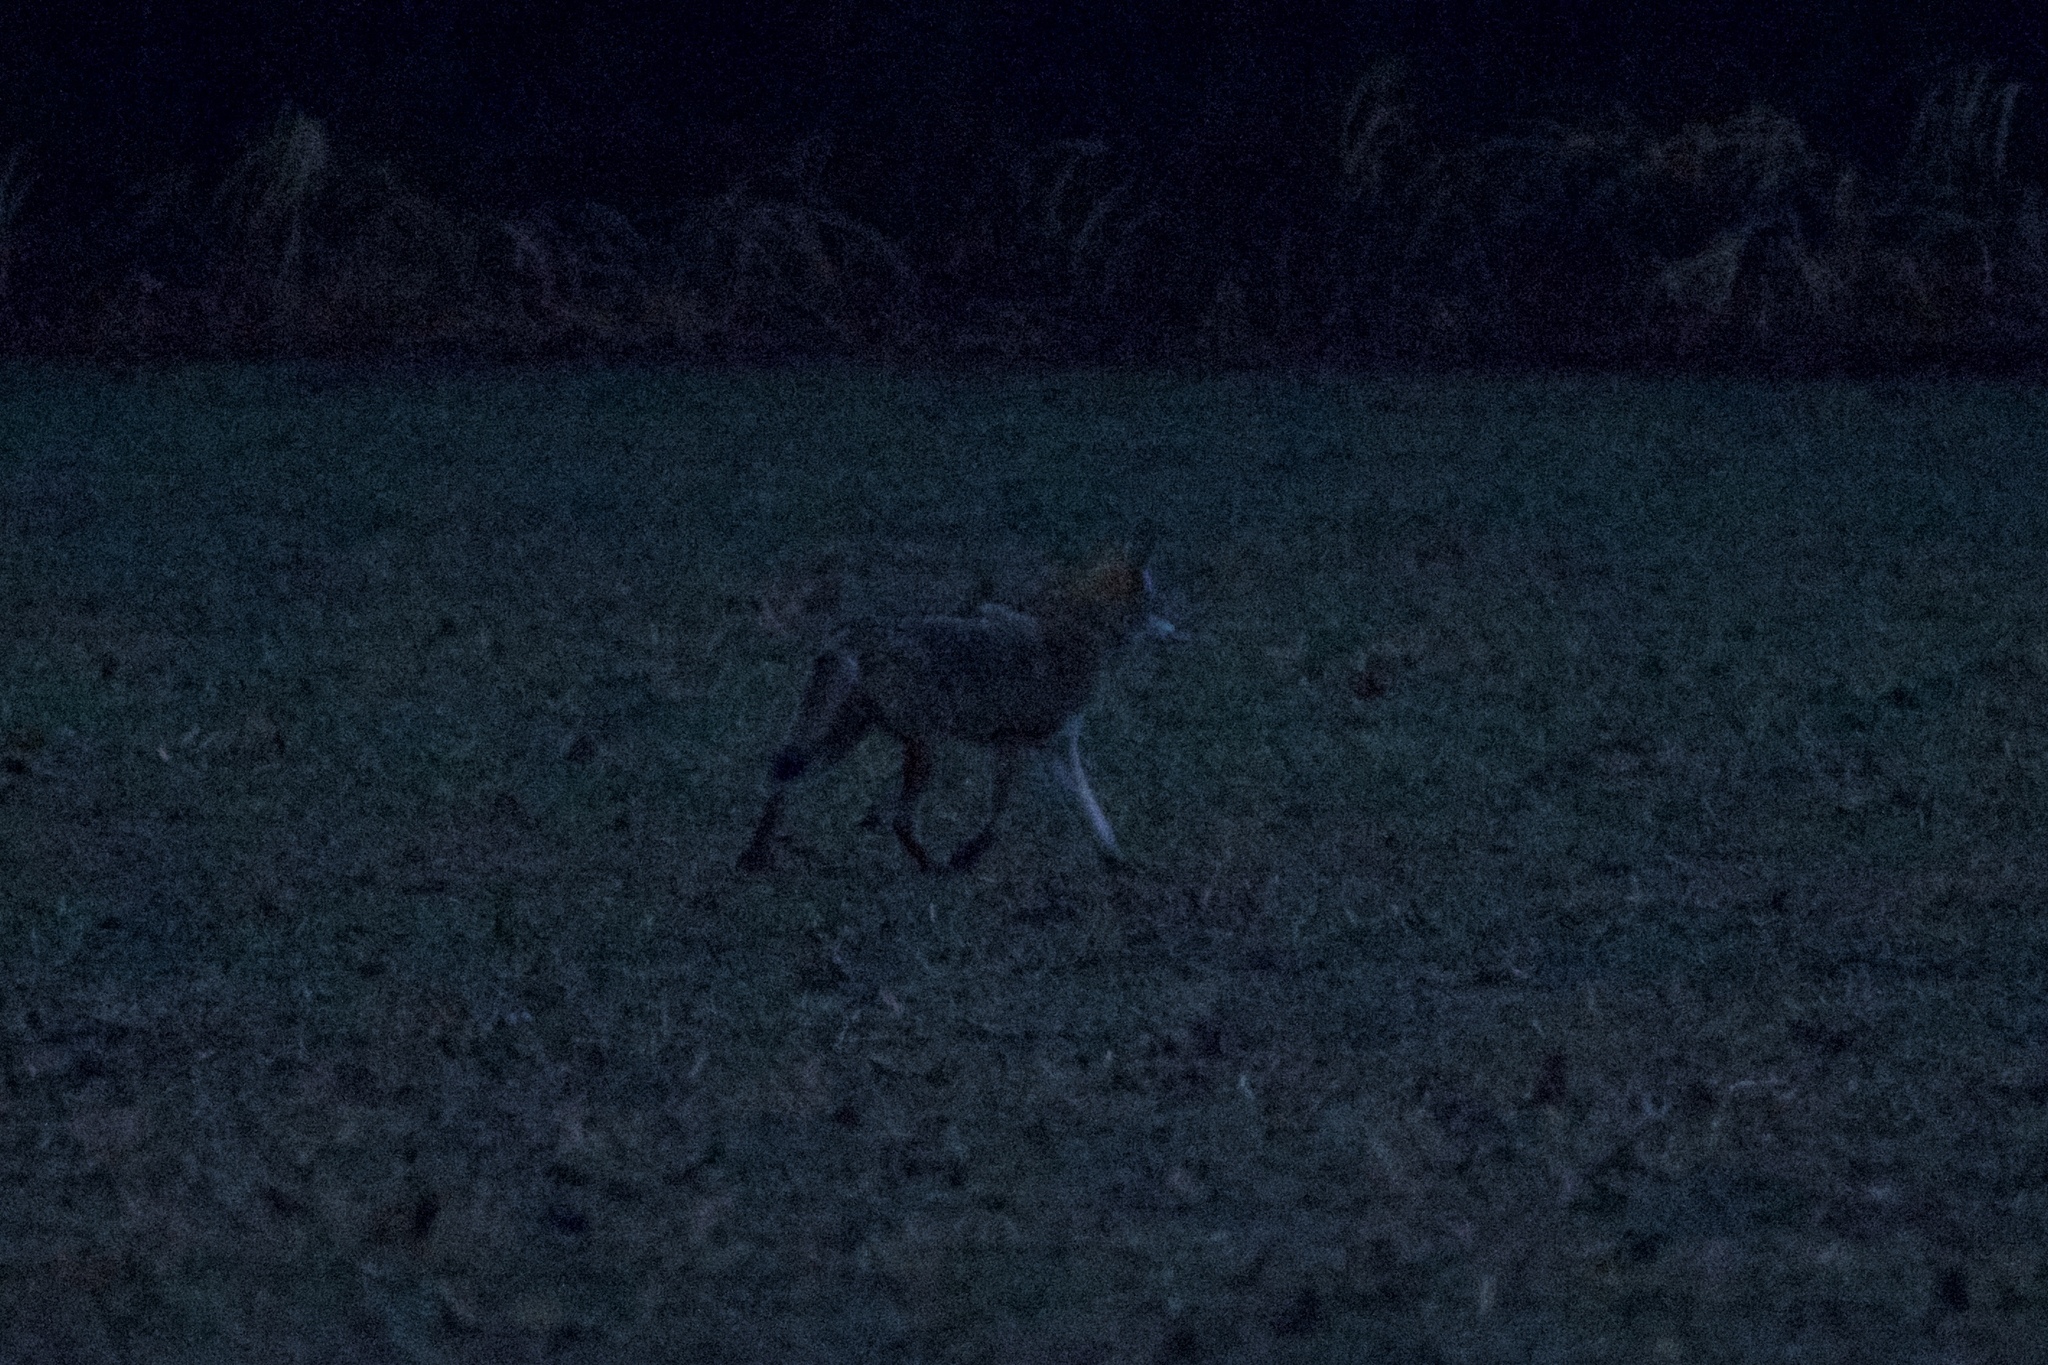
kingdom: Animalia
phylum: Chordata
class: Mammalia
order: Carnivora
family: Canidae
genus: Canis
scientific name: Canis latrans
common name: Coyote
